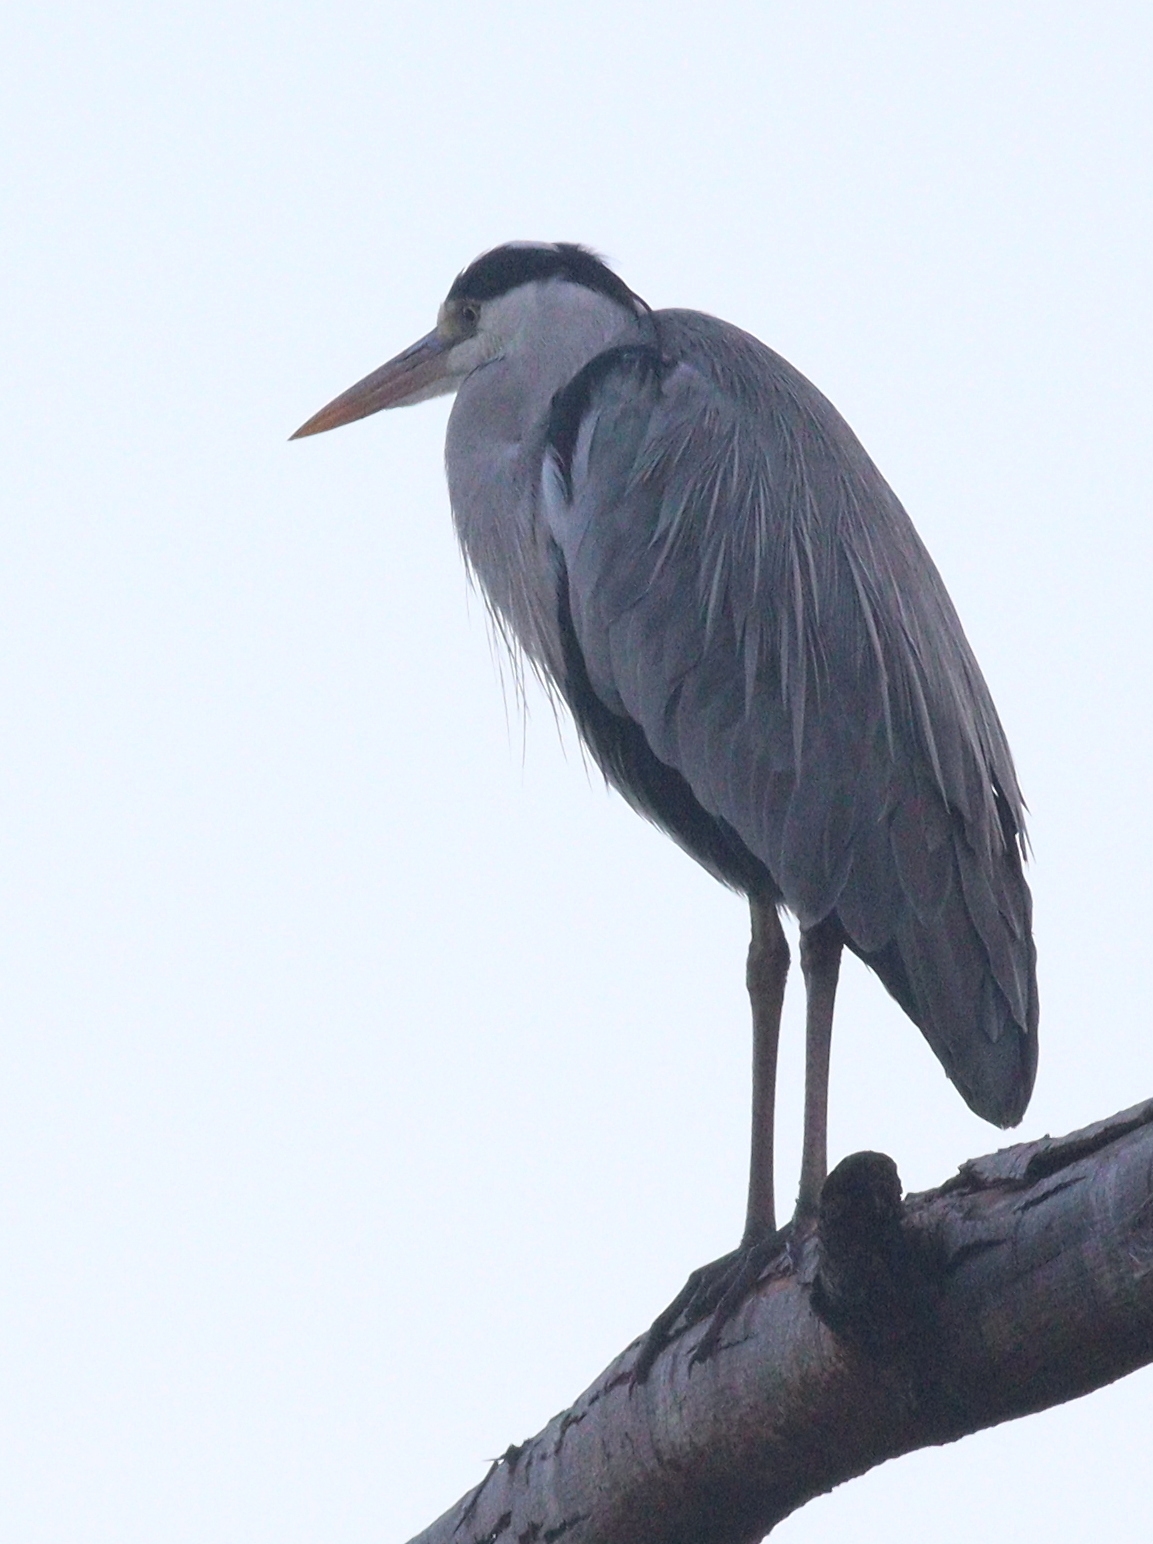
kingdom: Animalia
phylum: Chordata
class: Aves
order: Pelecaniformes
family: Ardeidae
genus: Ardea
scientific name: Ardea cinerea
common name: Grey heron
